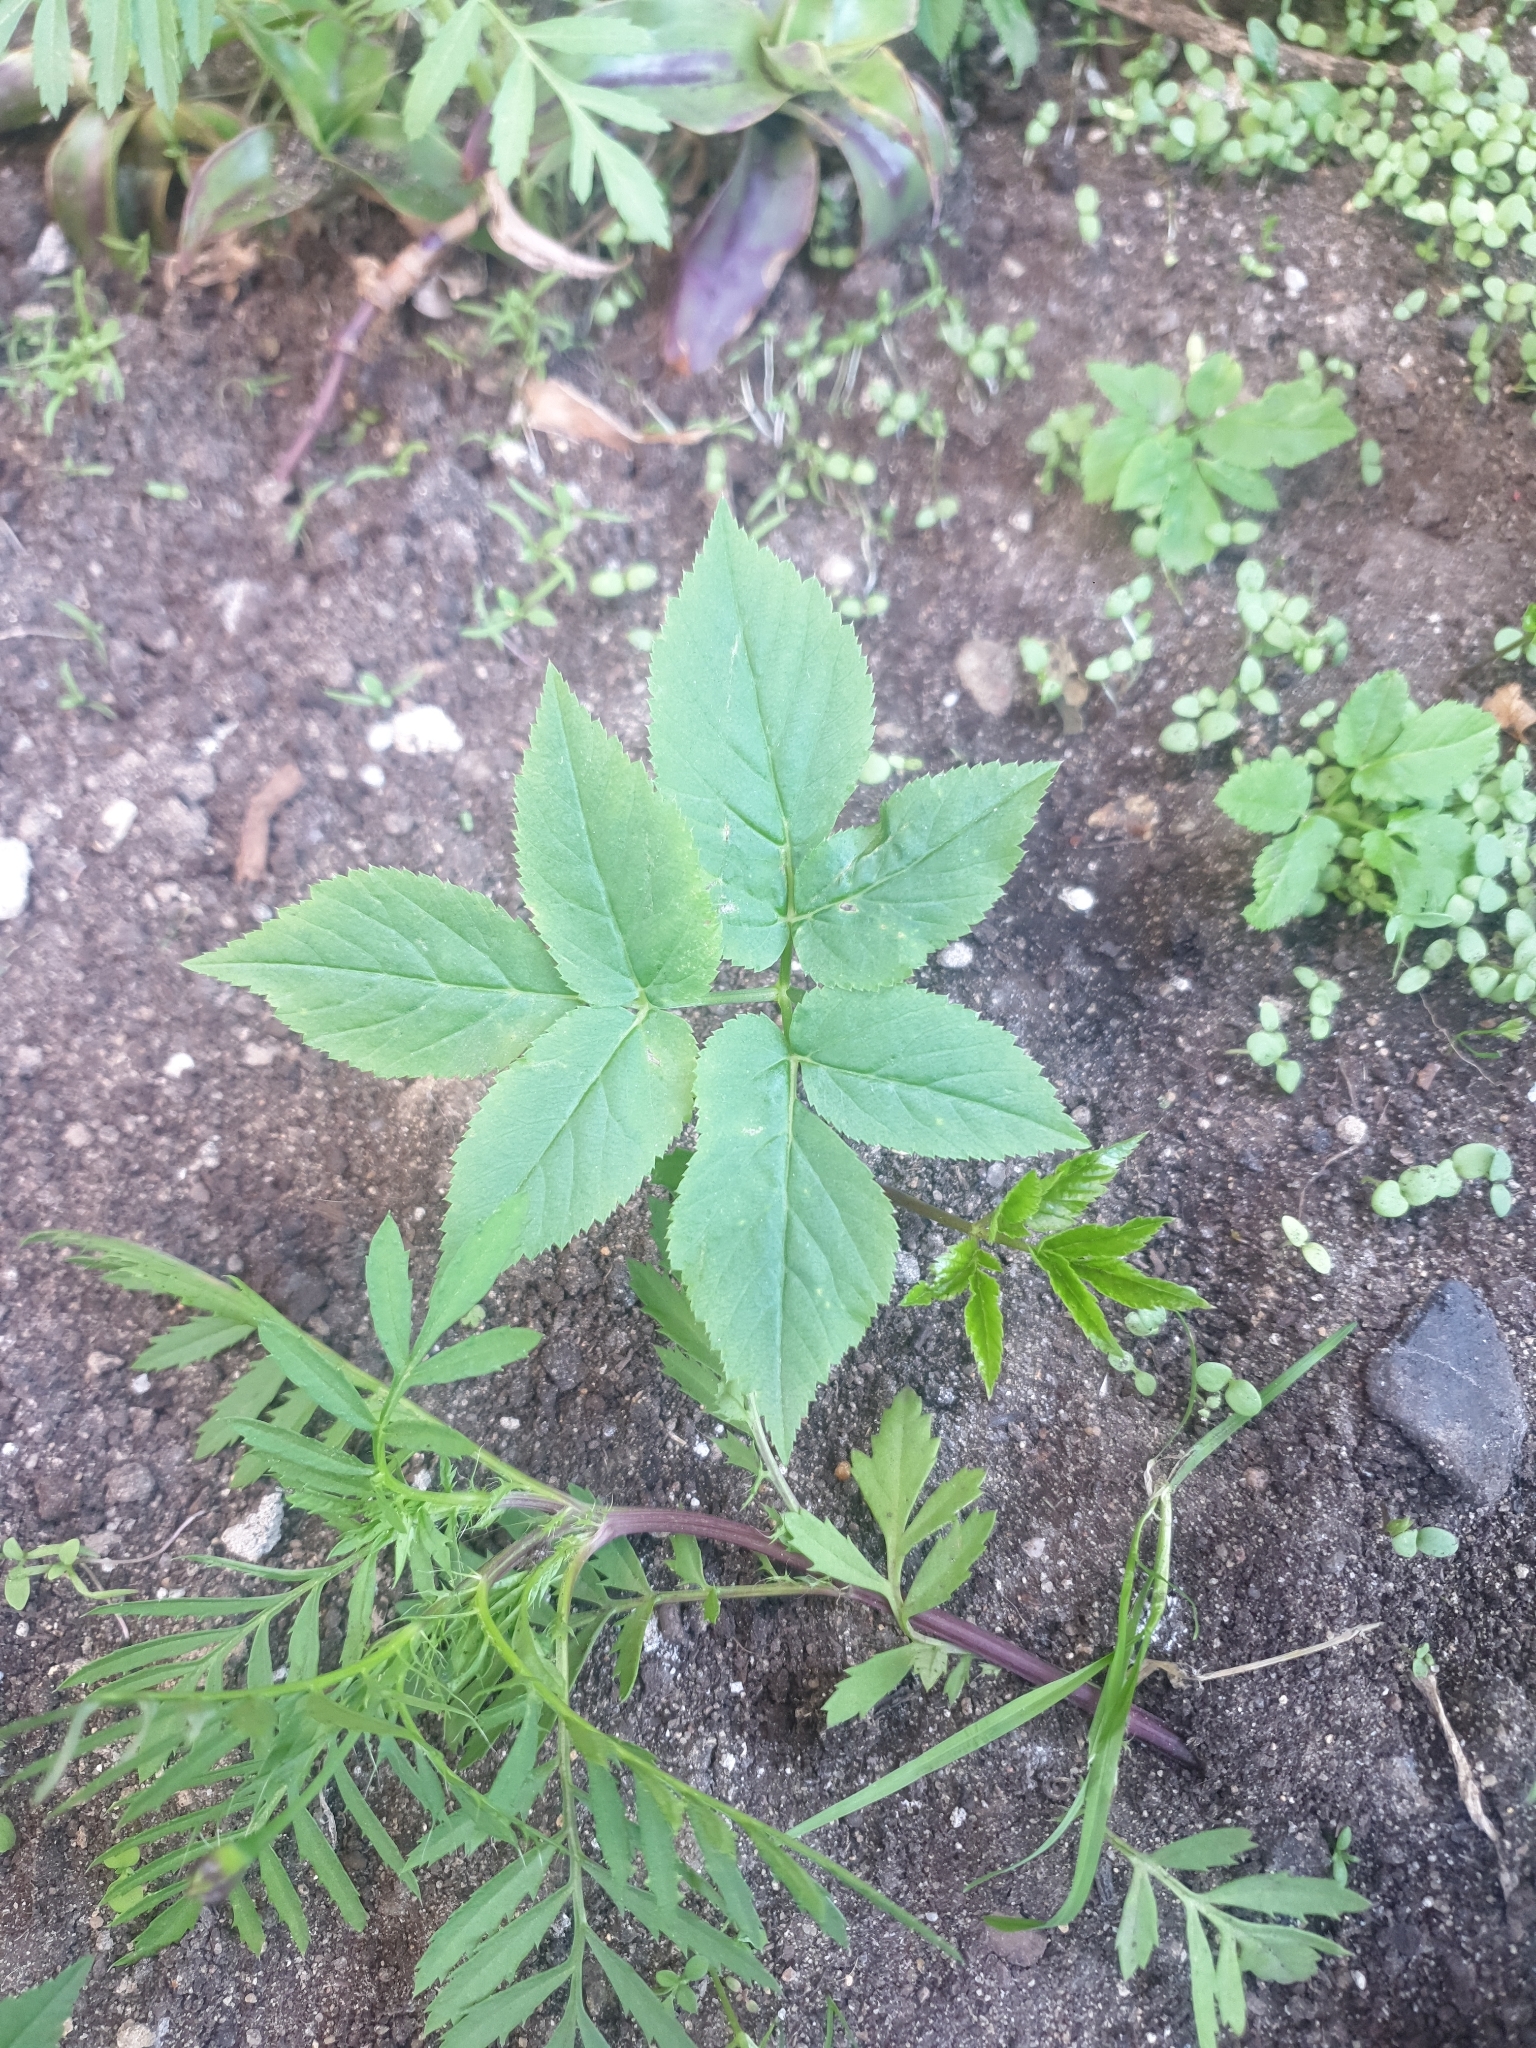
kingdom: Plantae
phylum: Tracheophyta
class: Magnoliopsida
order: Apiales
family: Apiaceae
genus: Aegopodium
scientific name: Aegopodium podagraria
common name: Ground-elder
